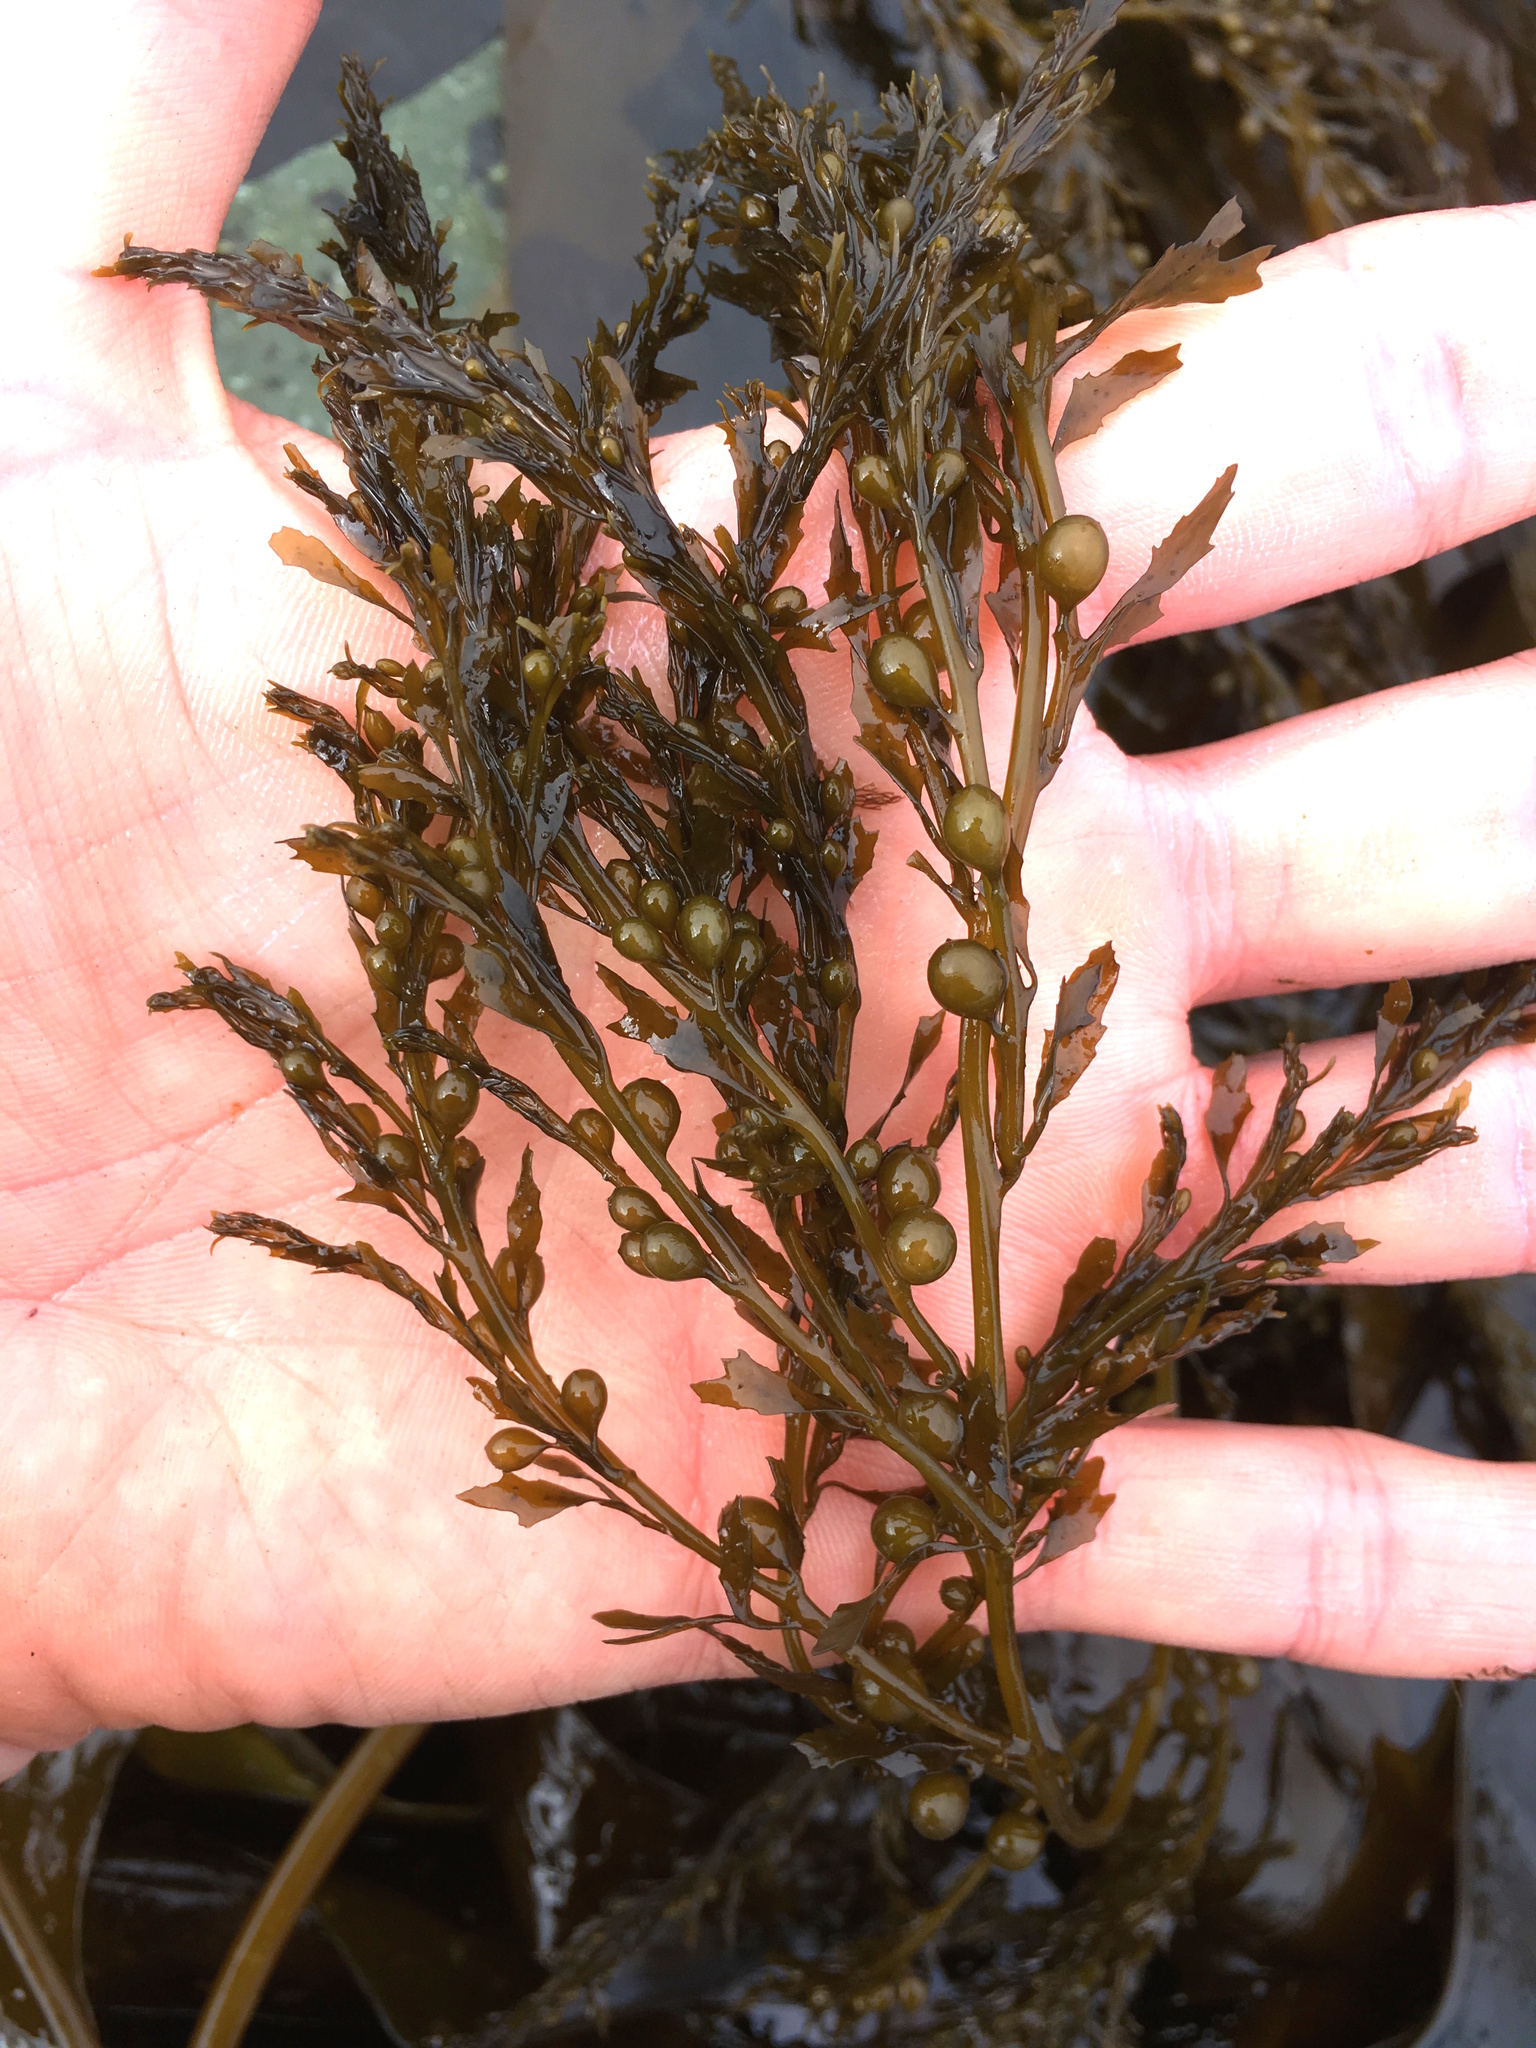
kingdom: Chromista
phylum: Ochrophyta
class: Phaeophyceae
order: Fucales
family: Sargassaceae
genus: Sargassum
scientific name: Sargassum muticum
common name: Japweed
